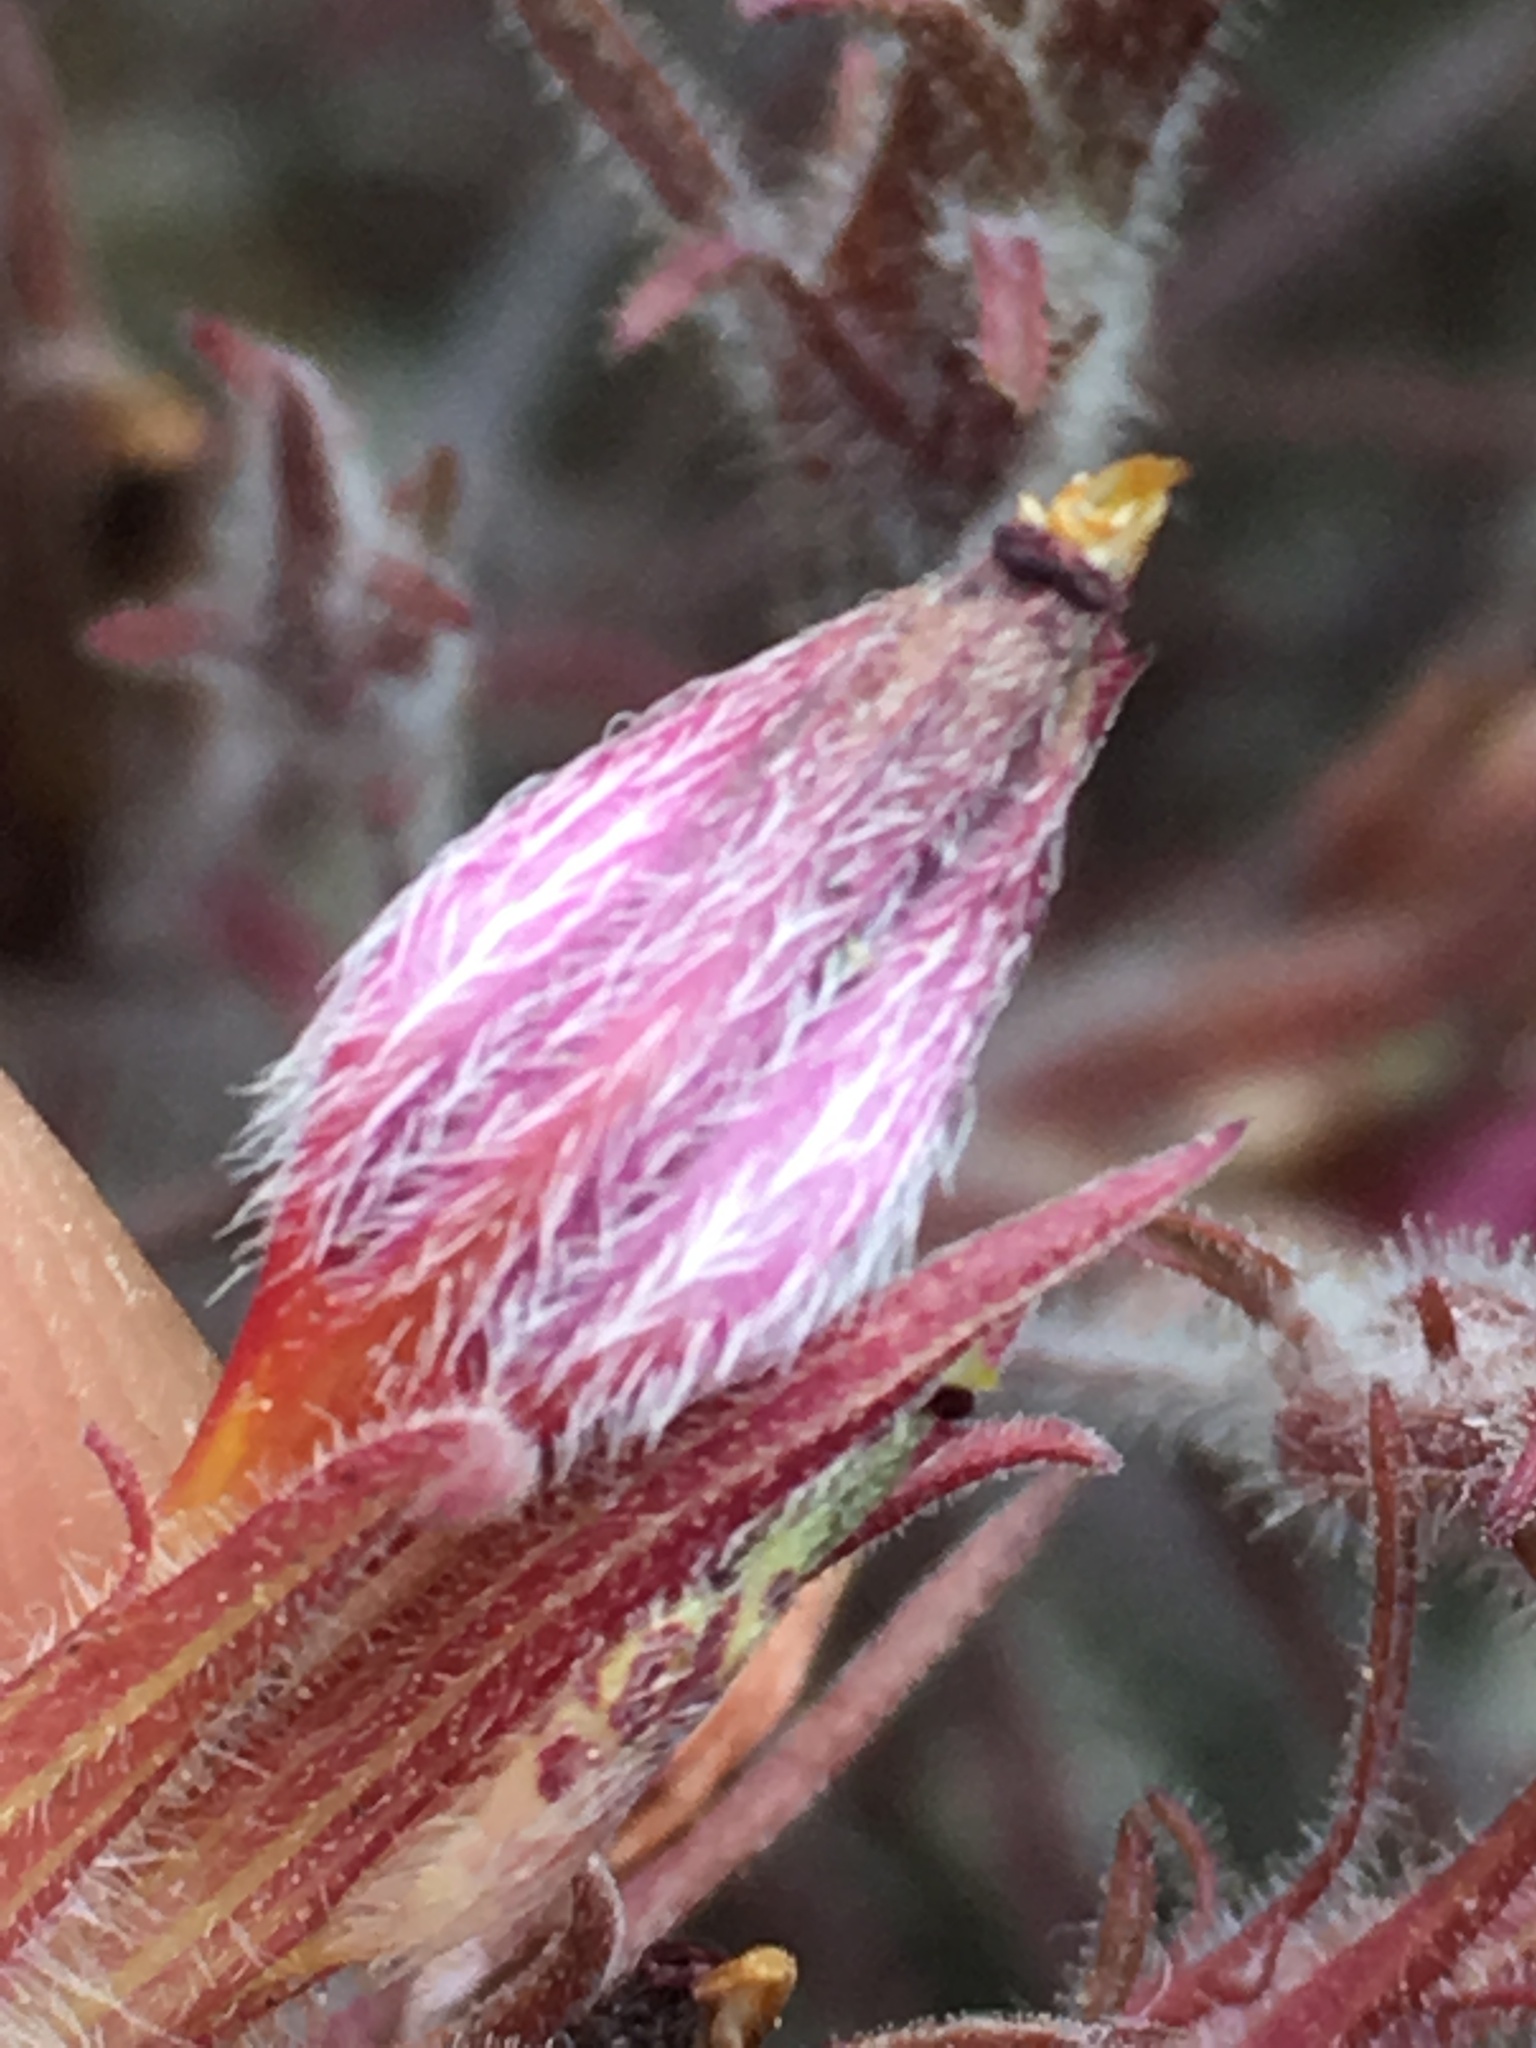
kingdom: Plantae
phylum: Tracheophyta
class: Magnoliopsida
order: Lamiales
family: Orobanchaceae
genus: Cordylanthus
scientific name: Cordylanthus kingii
